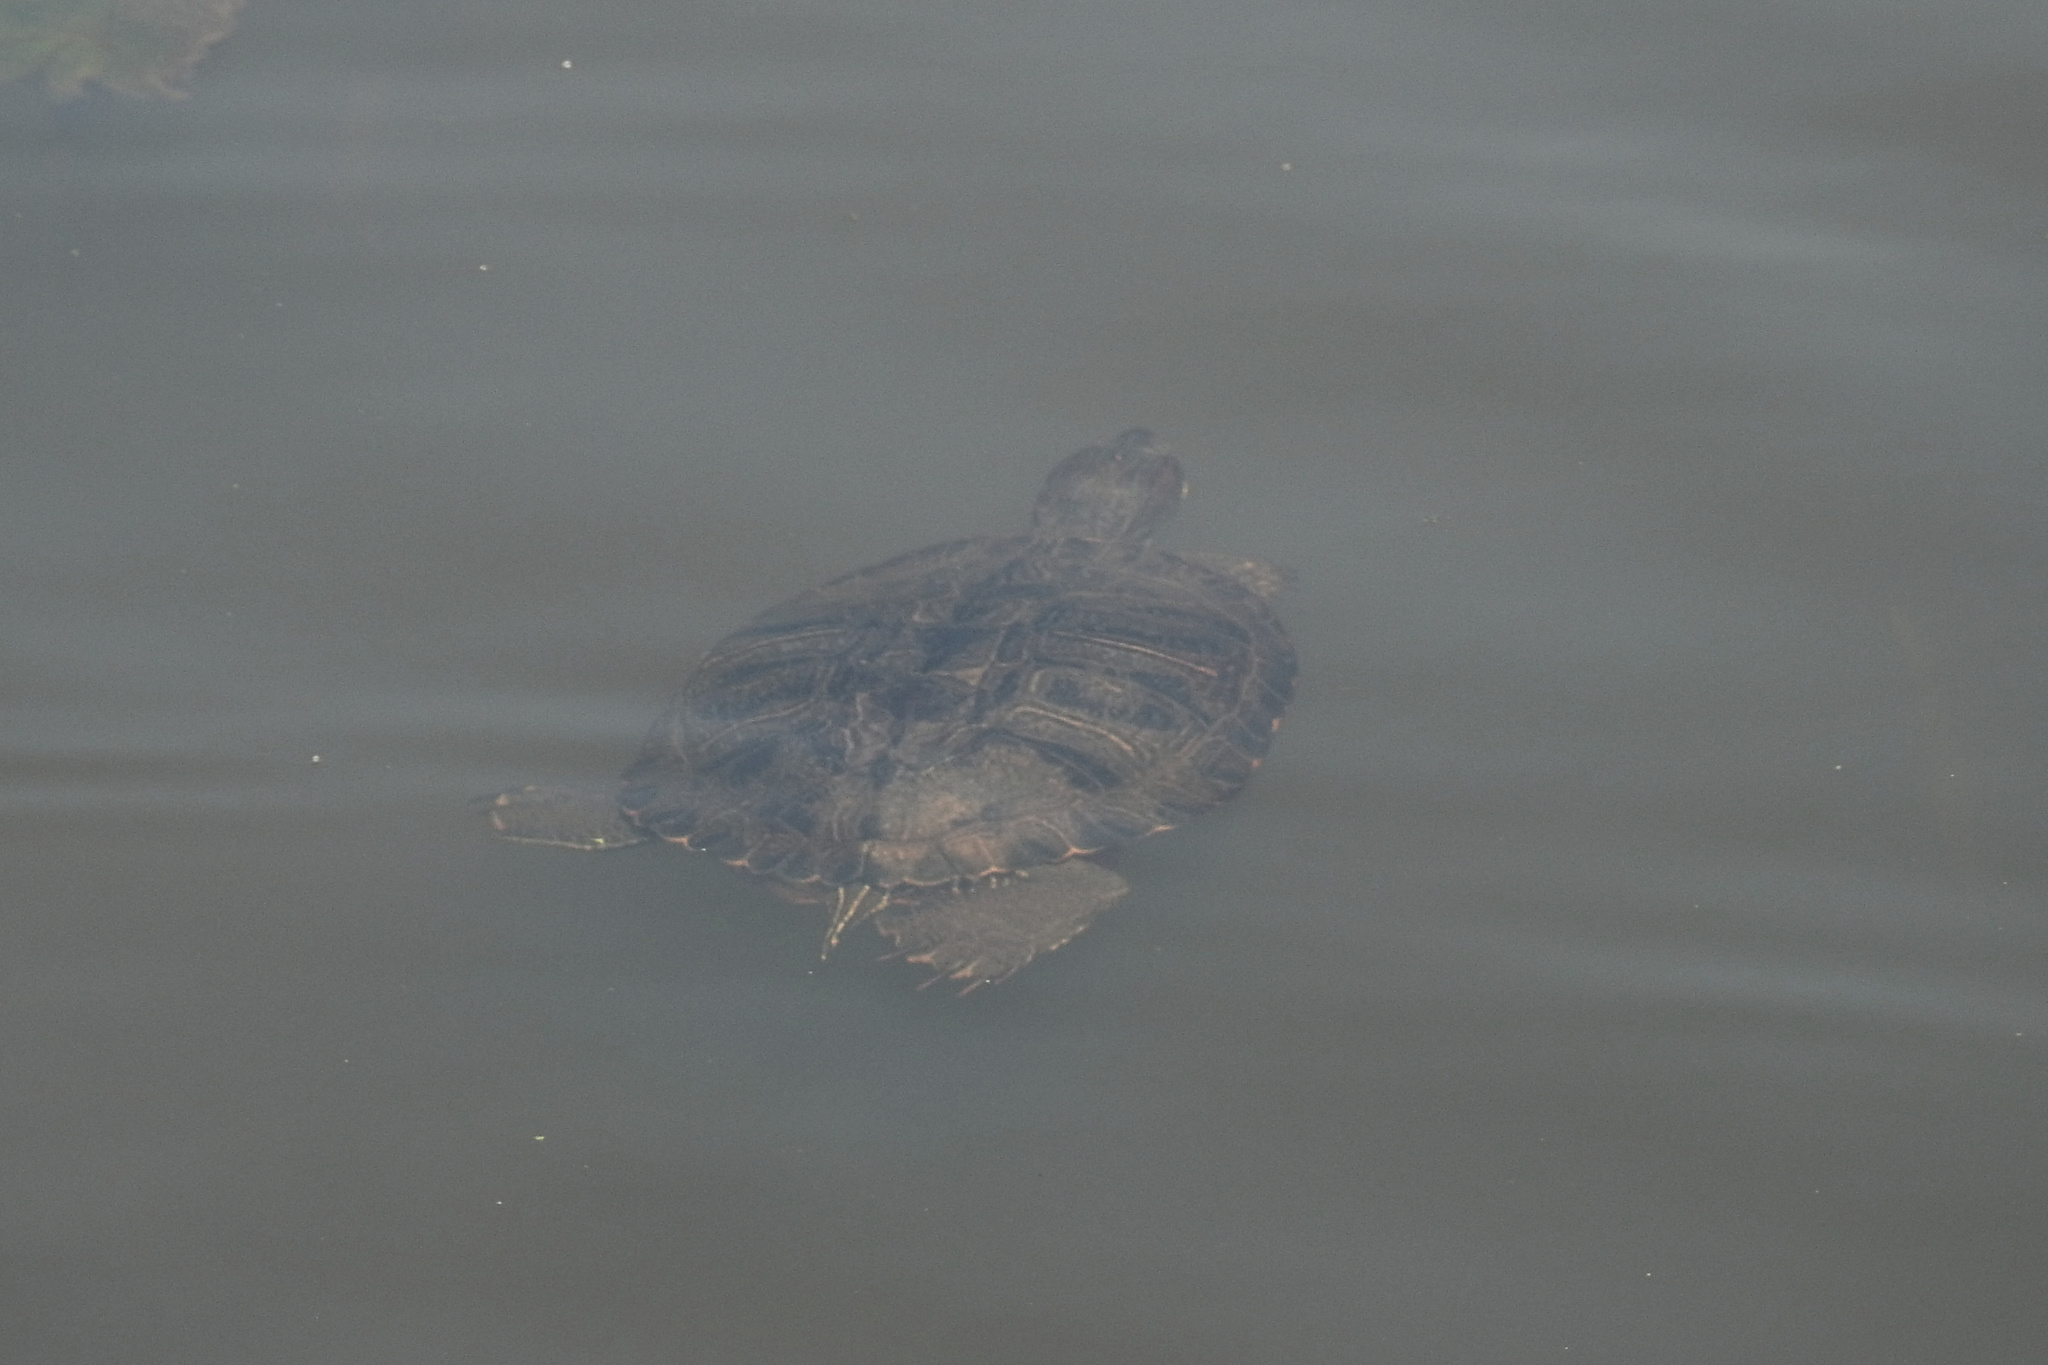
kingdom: Animalia
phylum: Chordata
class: Testudines
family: Emydidae
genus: Trachemys
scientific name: Trachemys scripta
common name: Slider
